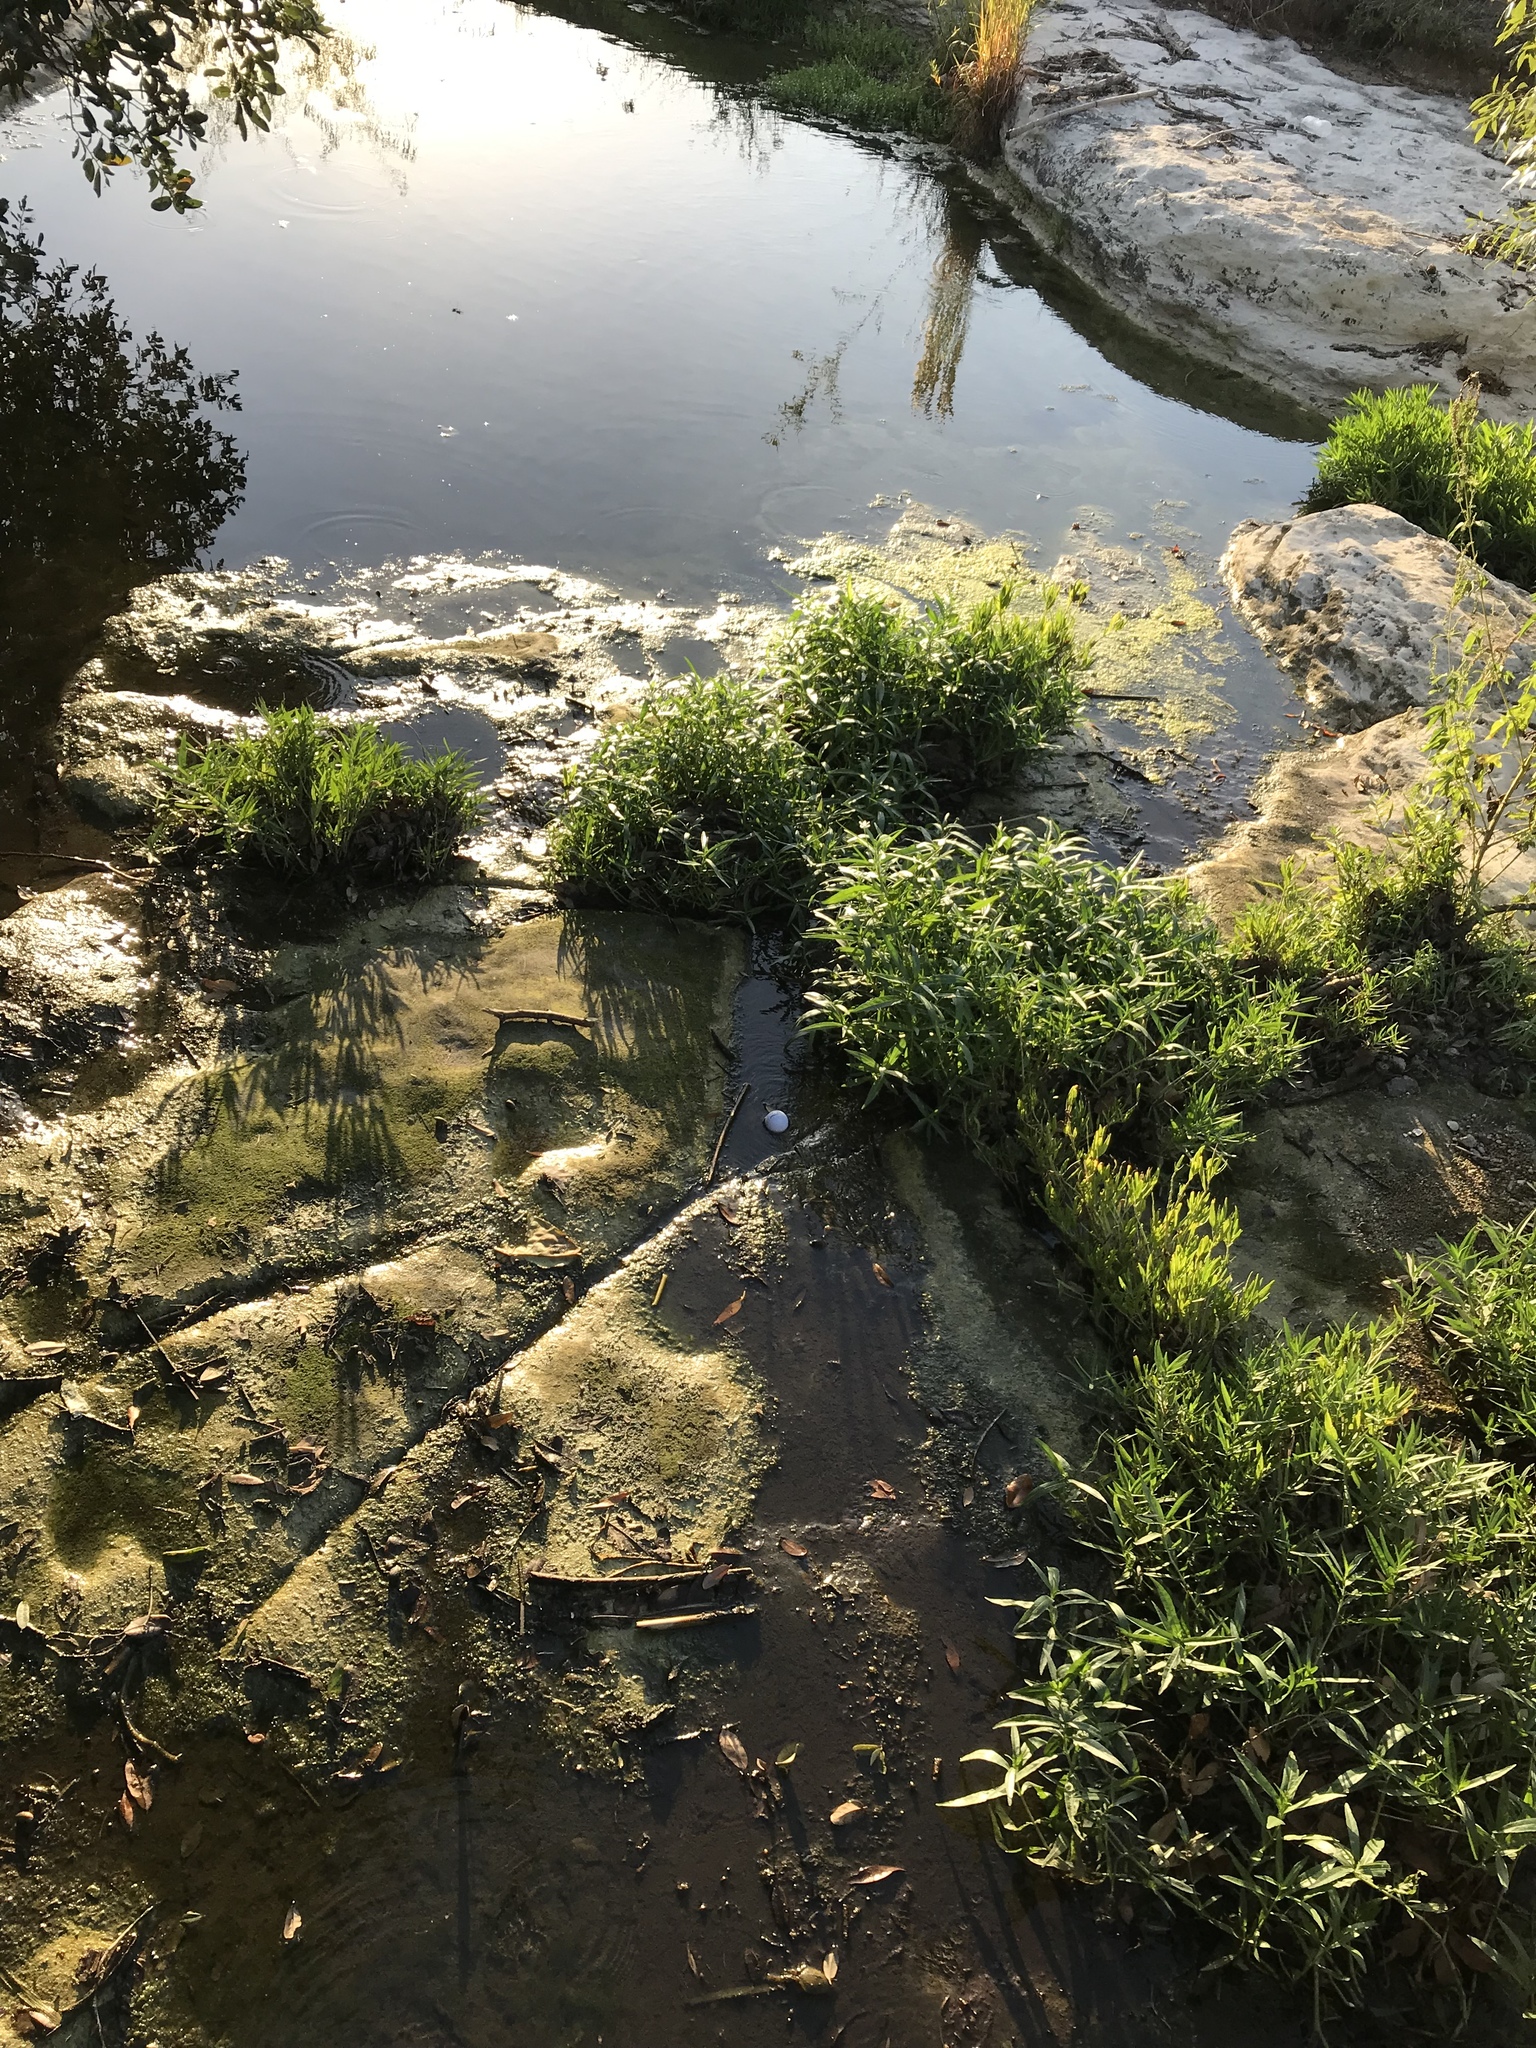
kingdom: Plantae
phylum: Tracheophyta
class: Magnoliopsida
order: Lamiales
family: Acanthaceae
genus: Dianthera
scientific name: Dianthera americana
